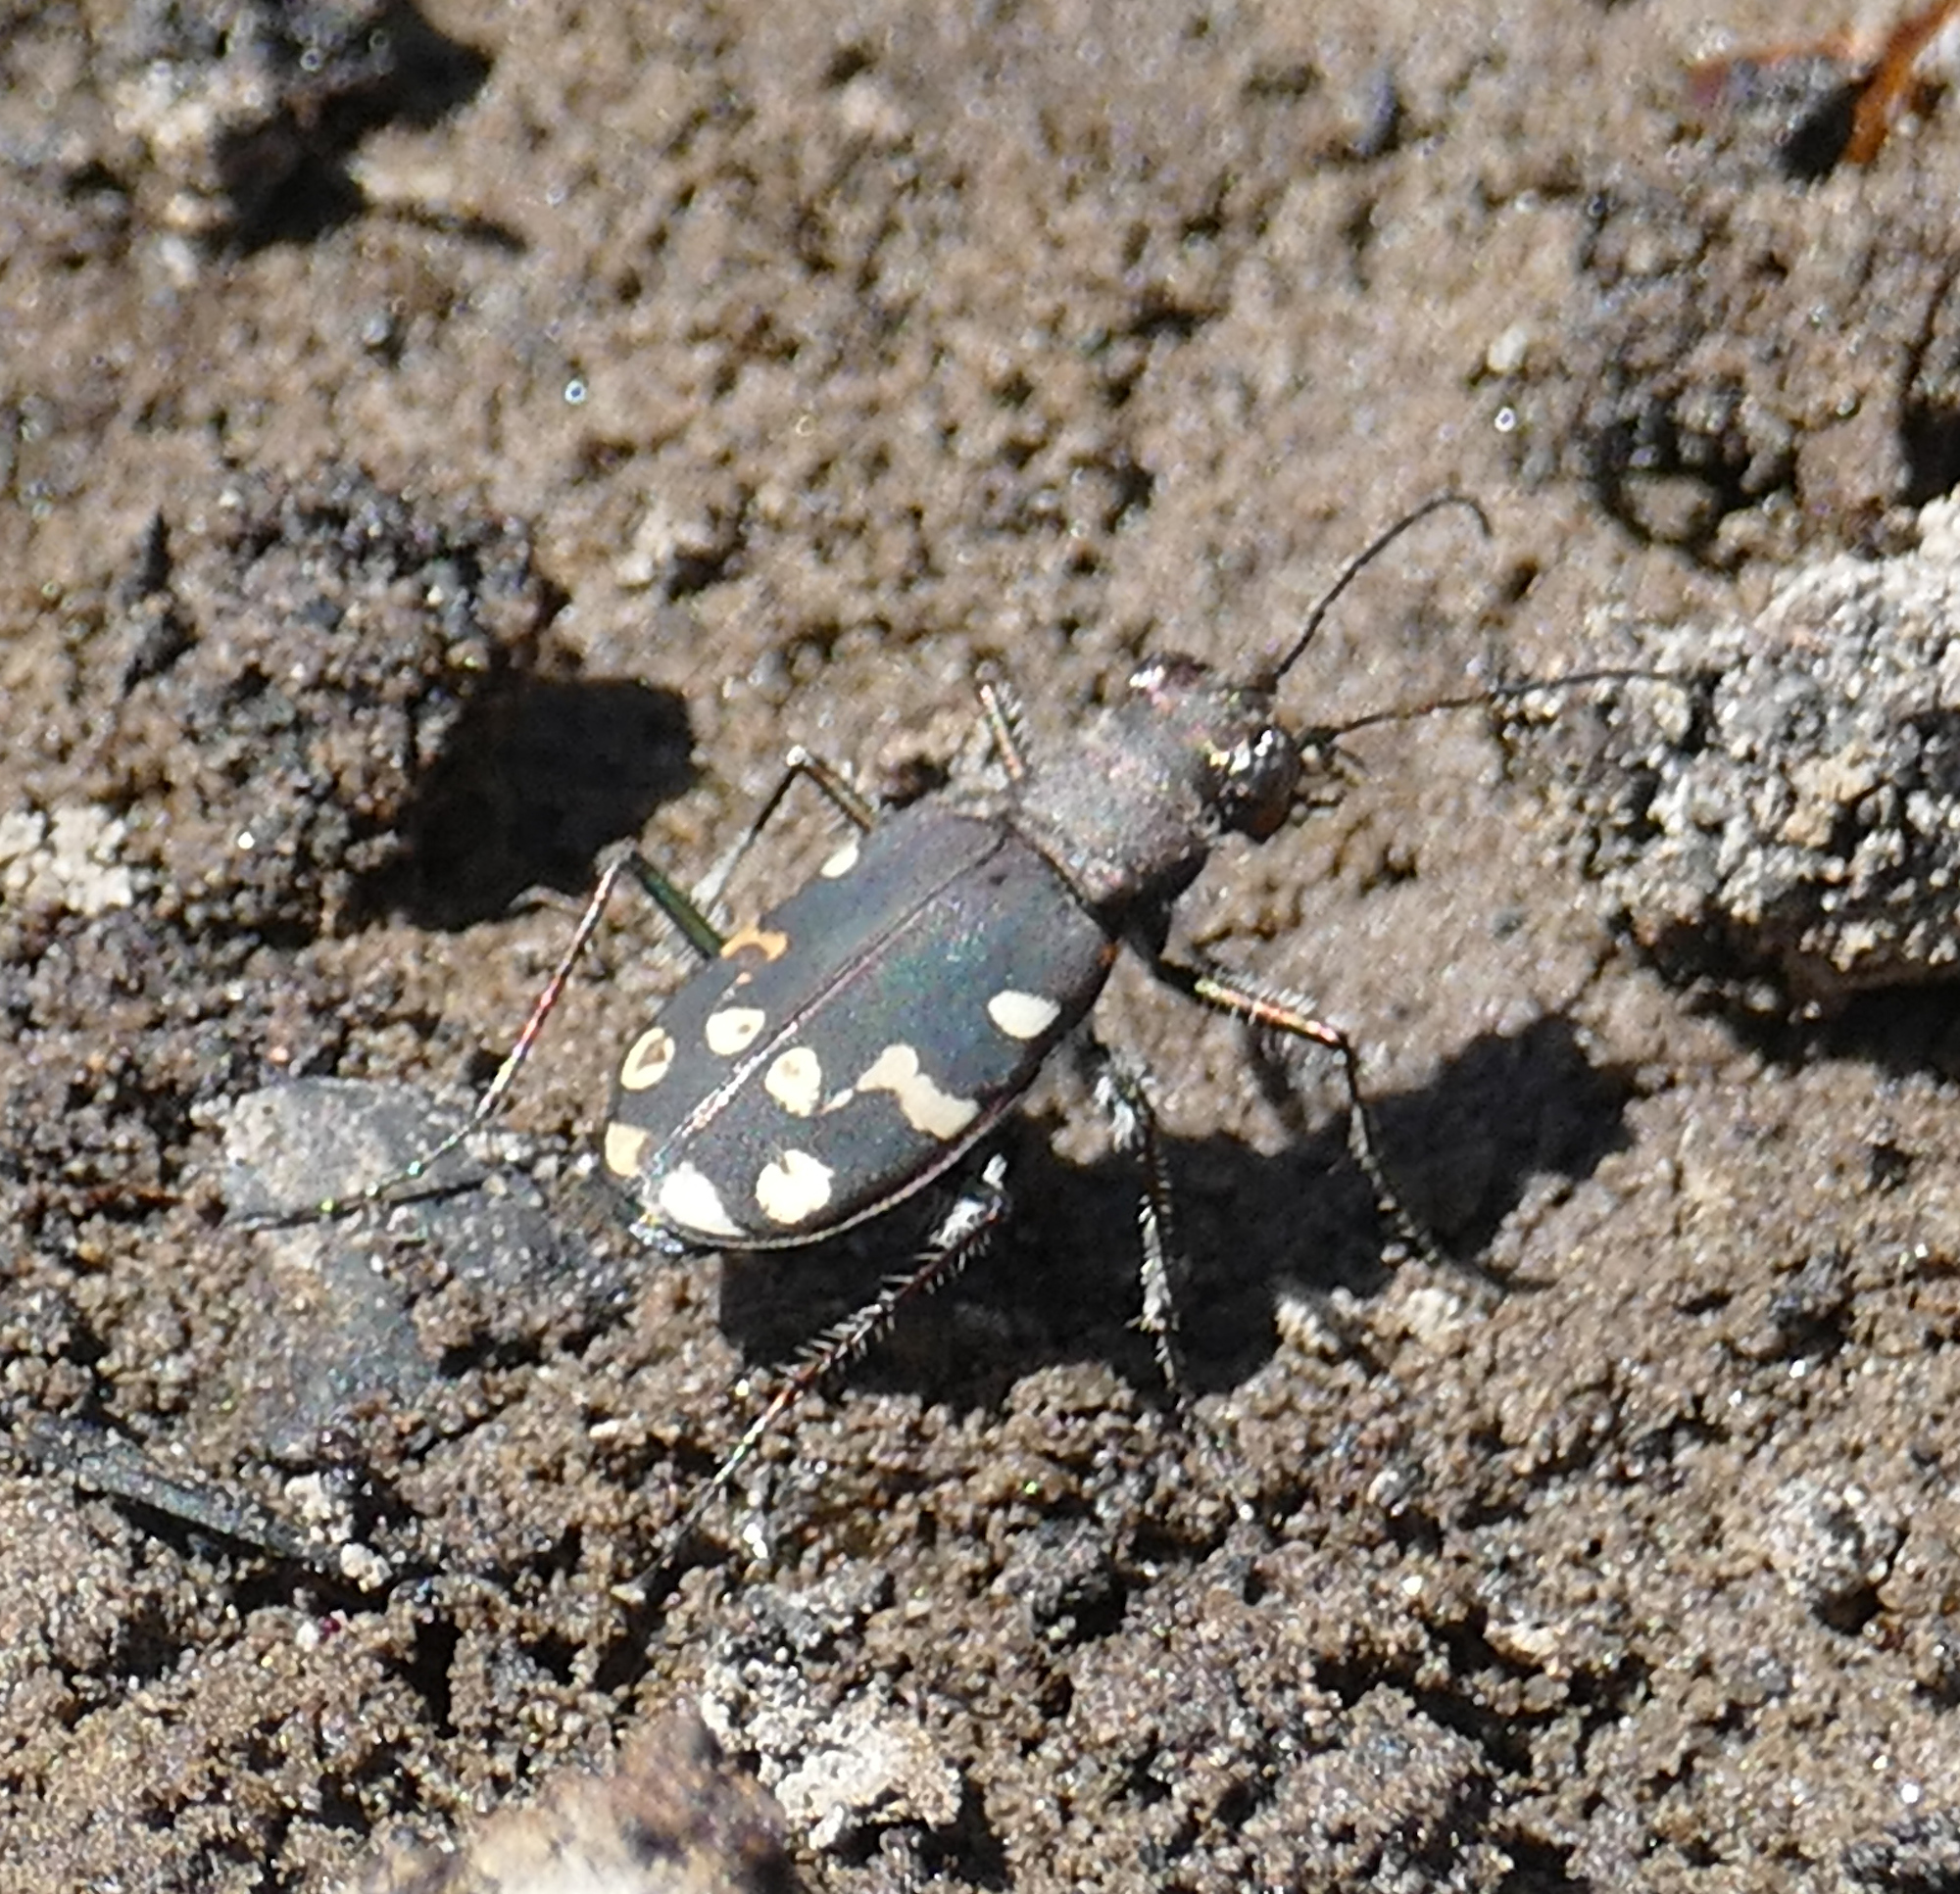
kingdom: Animalia
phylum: Arthropoda
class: Insecta
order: Coleoptera
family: Carabidae
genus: Cicindela
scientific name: Cicindela oregona
